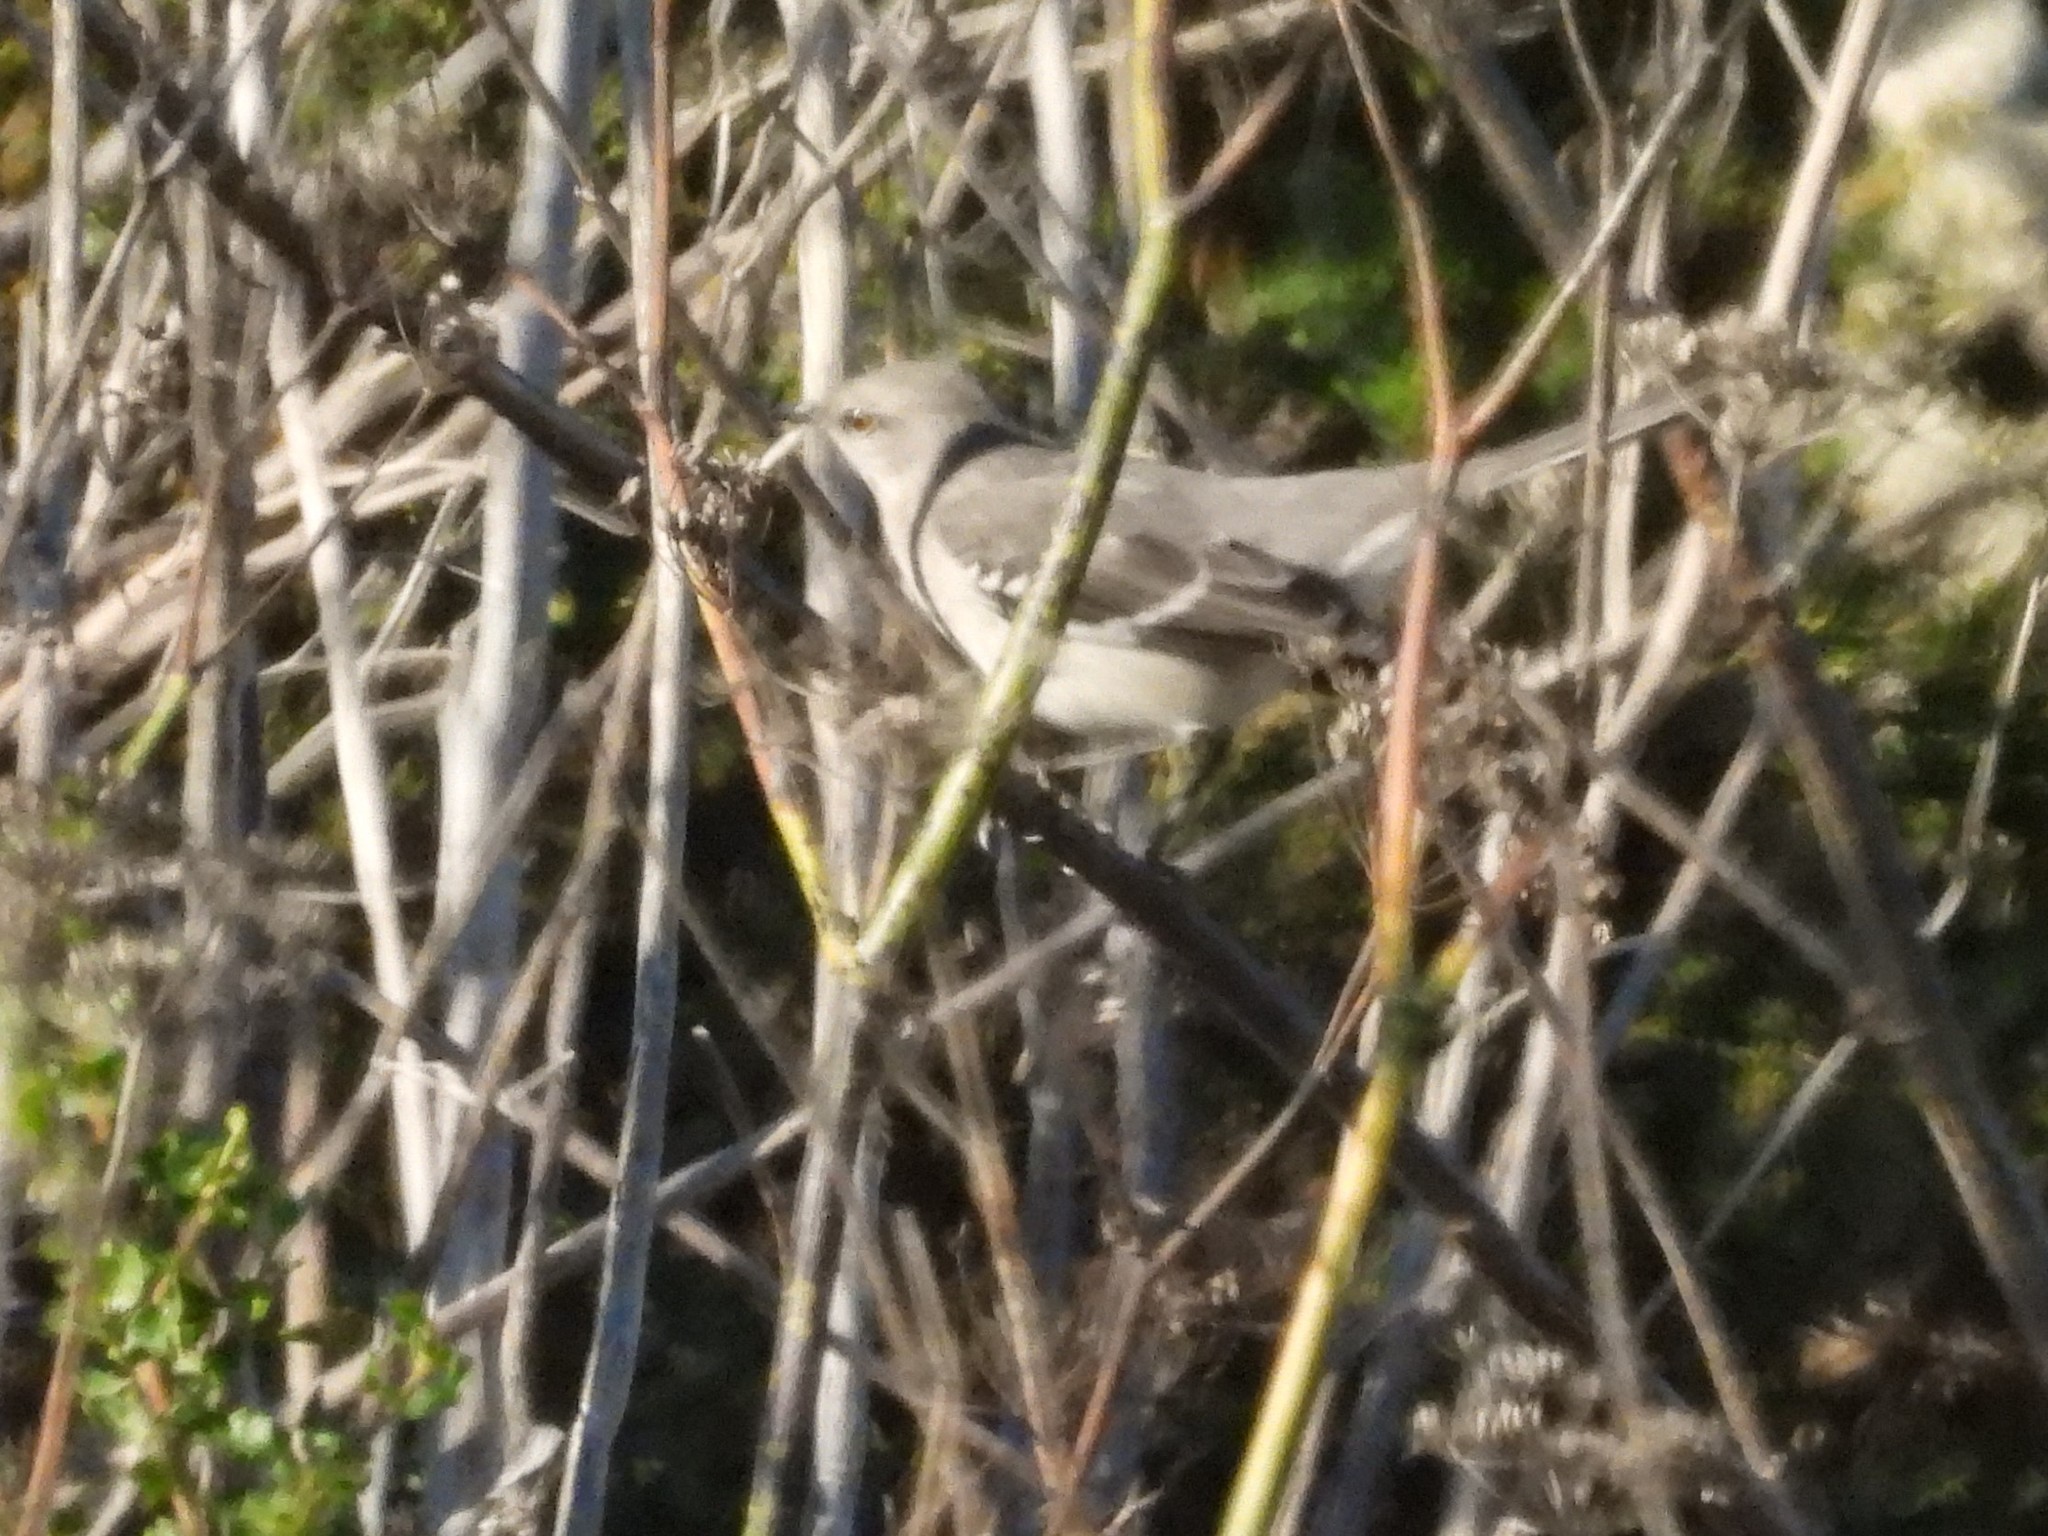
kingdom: Animalia
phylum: Chordata
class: Aves
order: Passeriformes
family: Mimidae
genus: Mimus
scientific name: Mimus polyglottos
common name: Northern mockingbird
